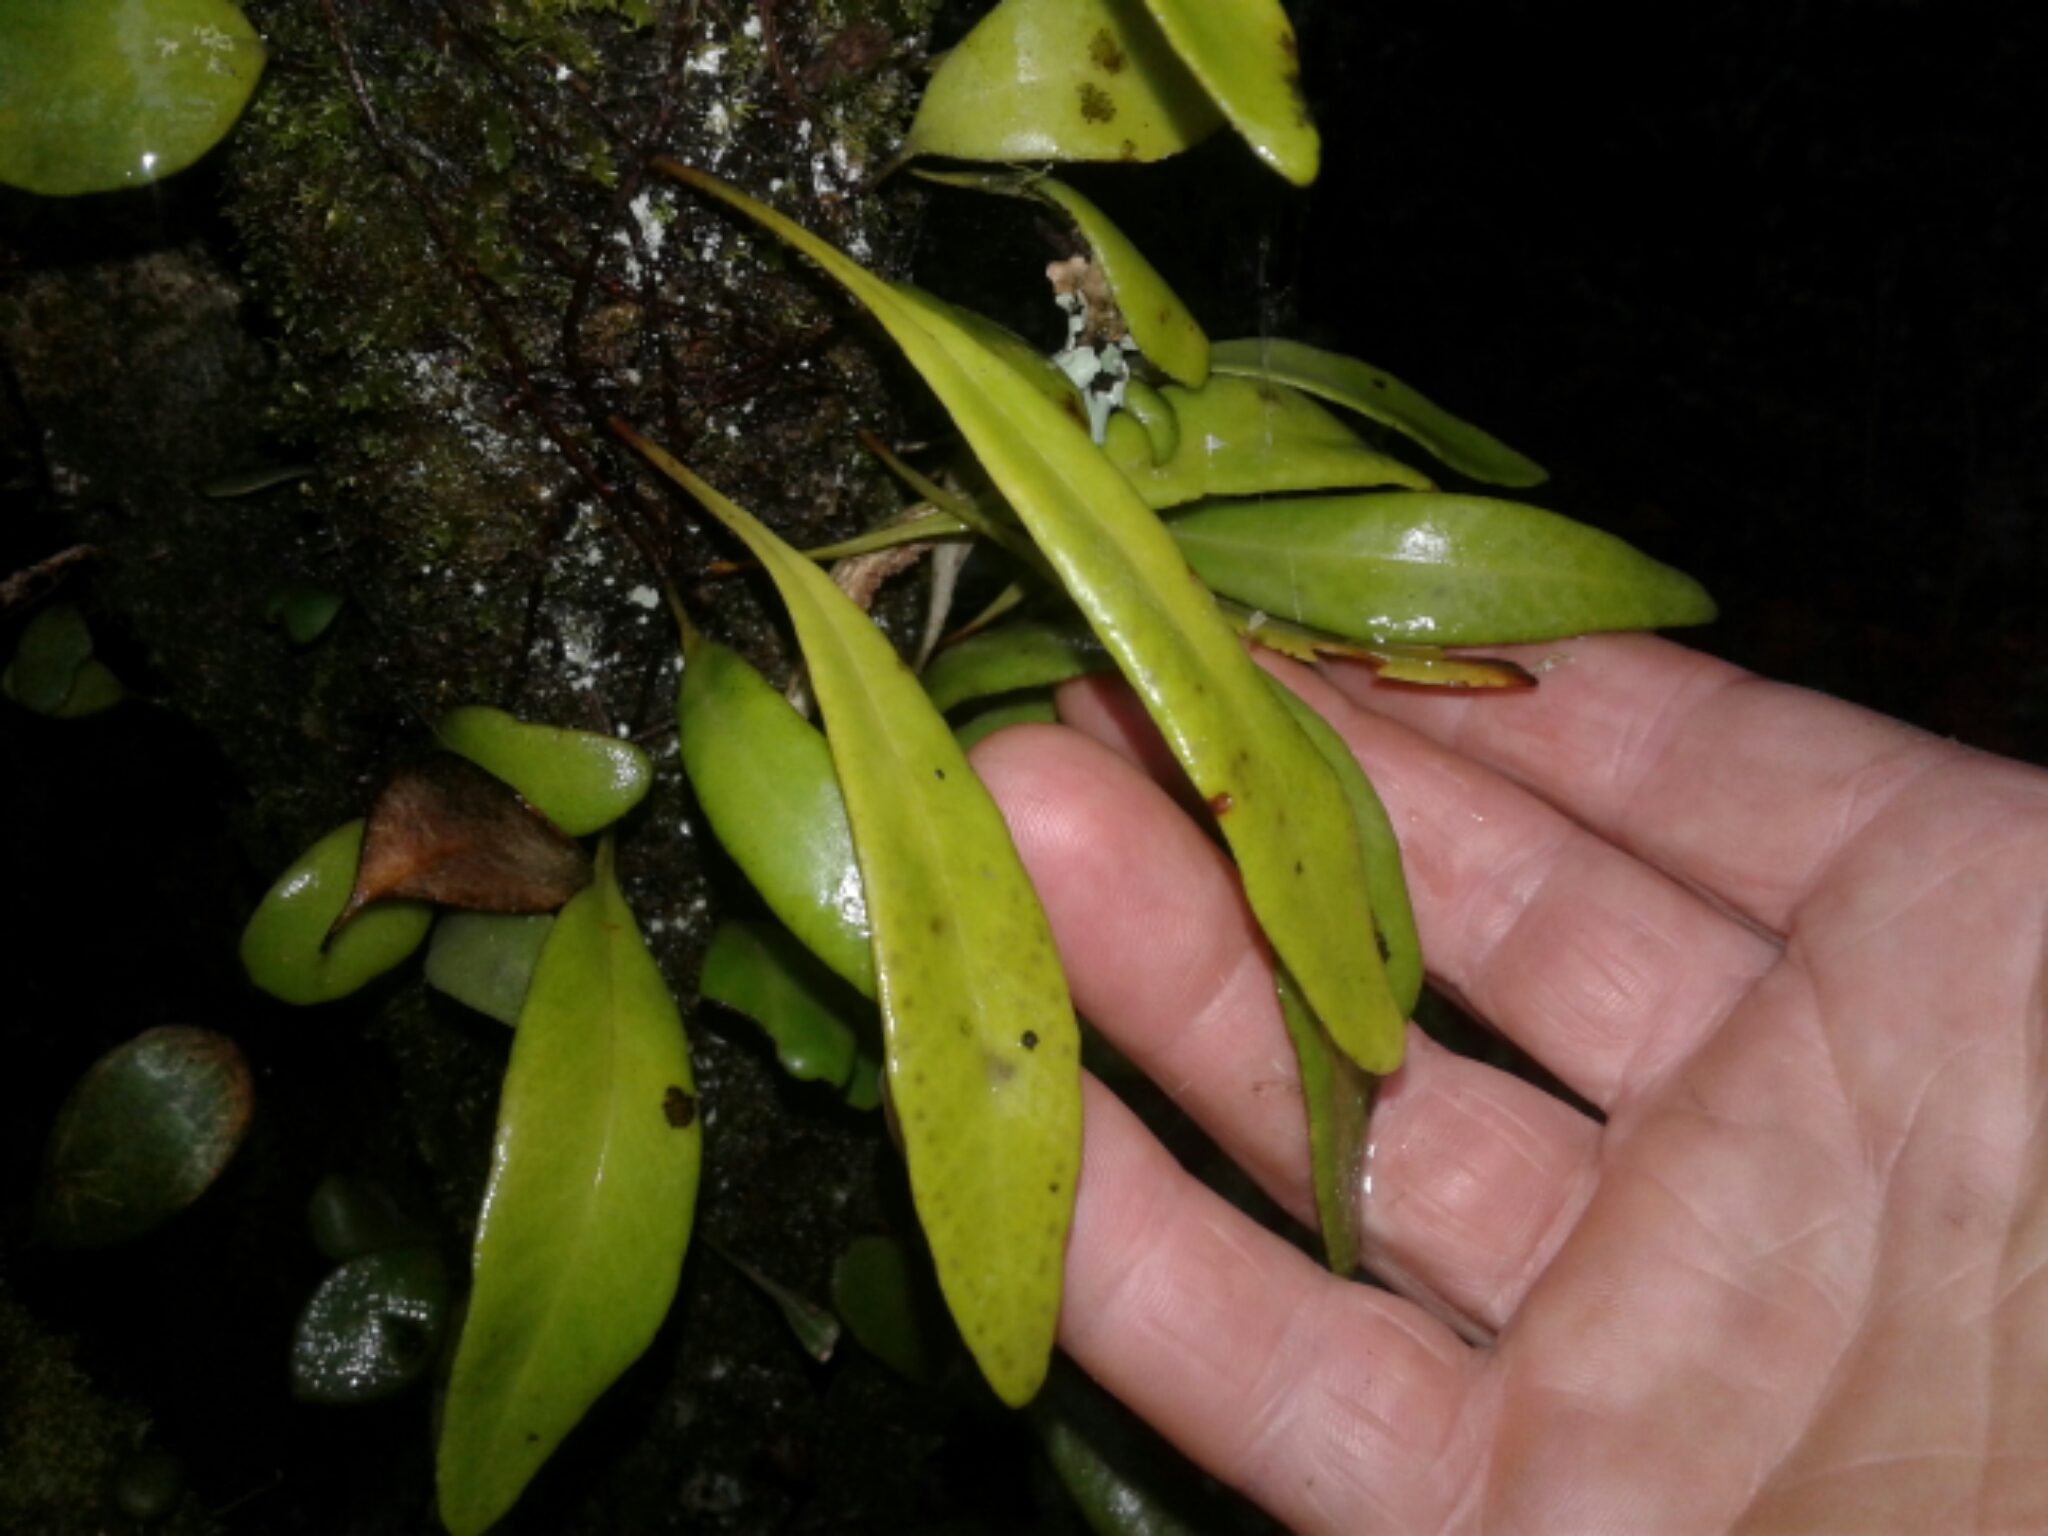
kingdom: Plantae
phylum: Tracheophyta
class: Polypodiopsida
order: Polypodiales
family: Polypodiaceae
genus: Pyrrosia
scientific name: Pyrrosia eleagnifolia
